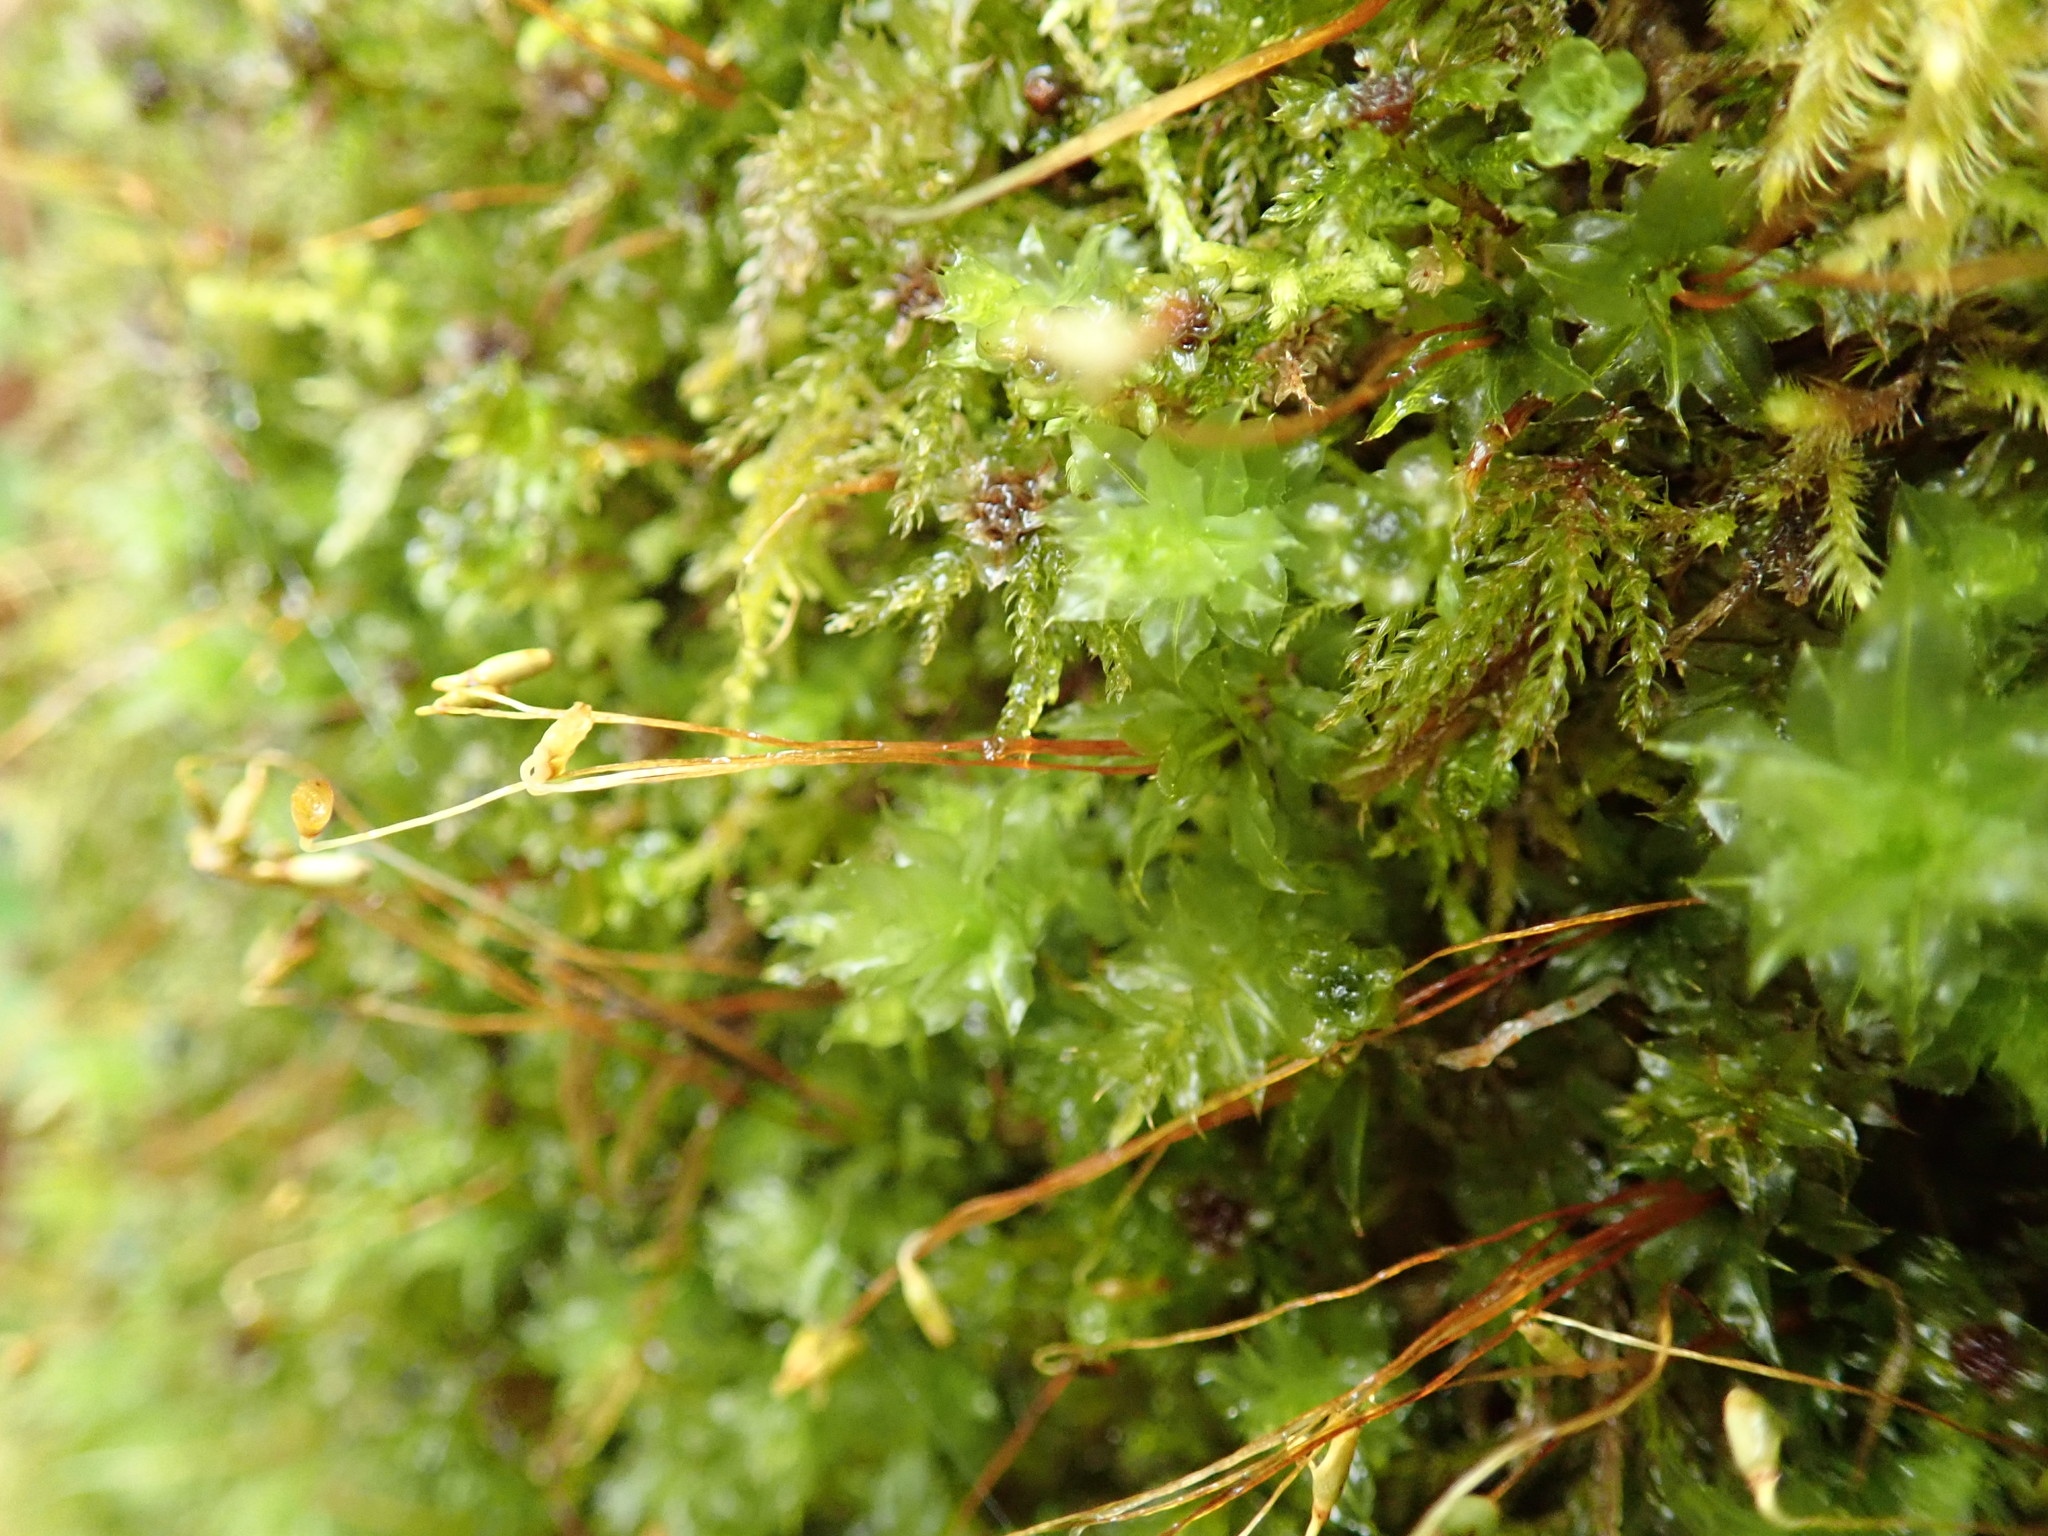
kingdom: Plantae
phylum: Bryophyta
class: Bryopsida
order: Bryales
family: Mniaceae
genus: Plagiomnium
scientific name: Plagiomnium venustum
